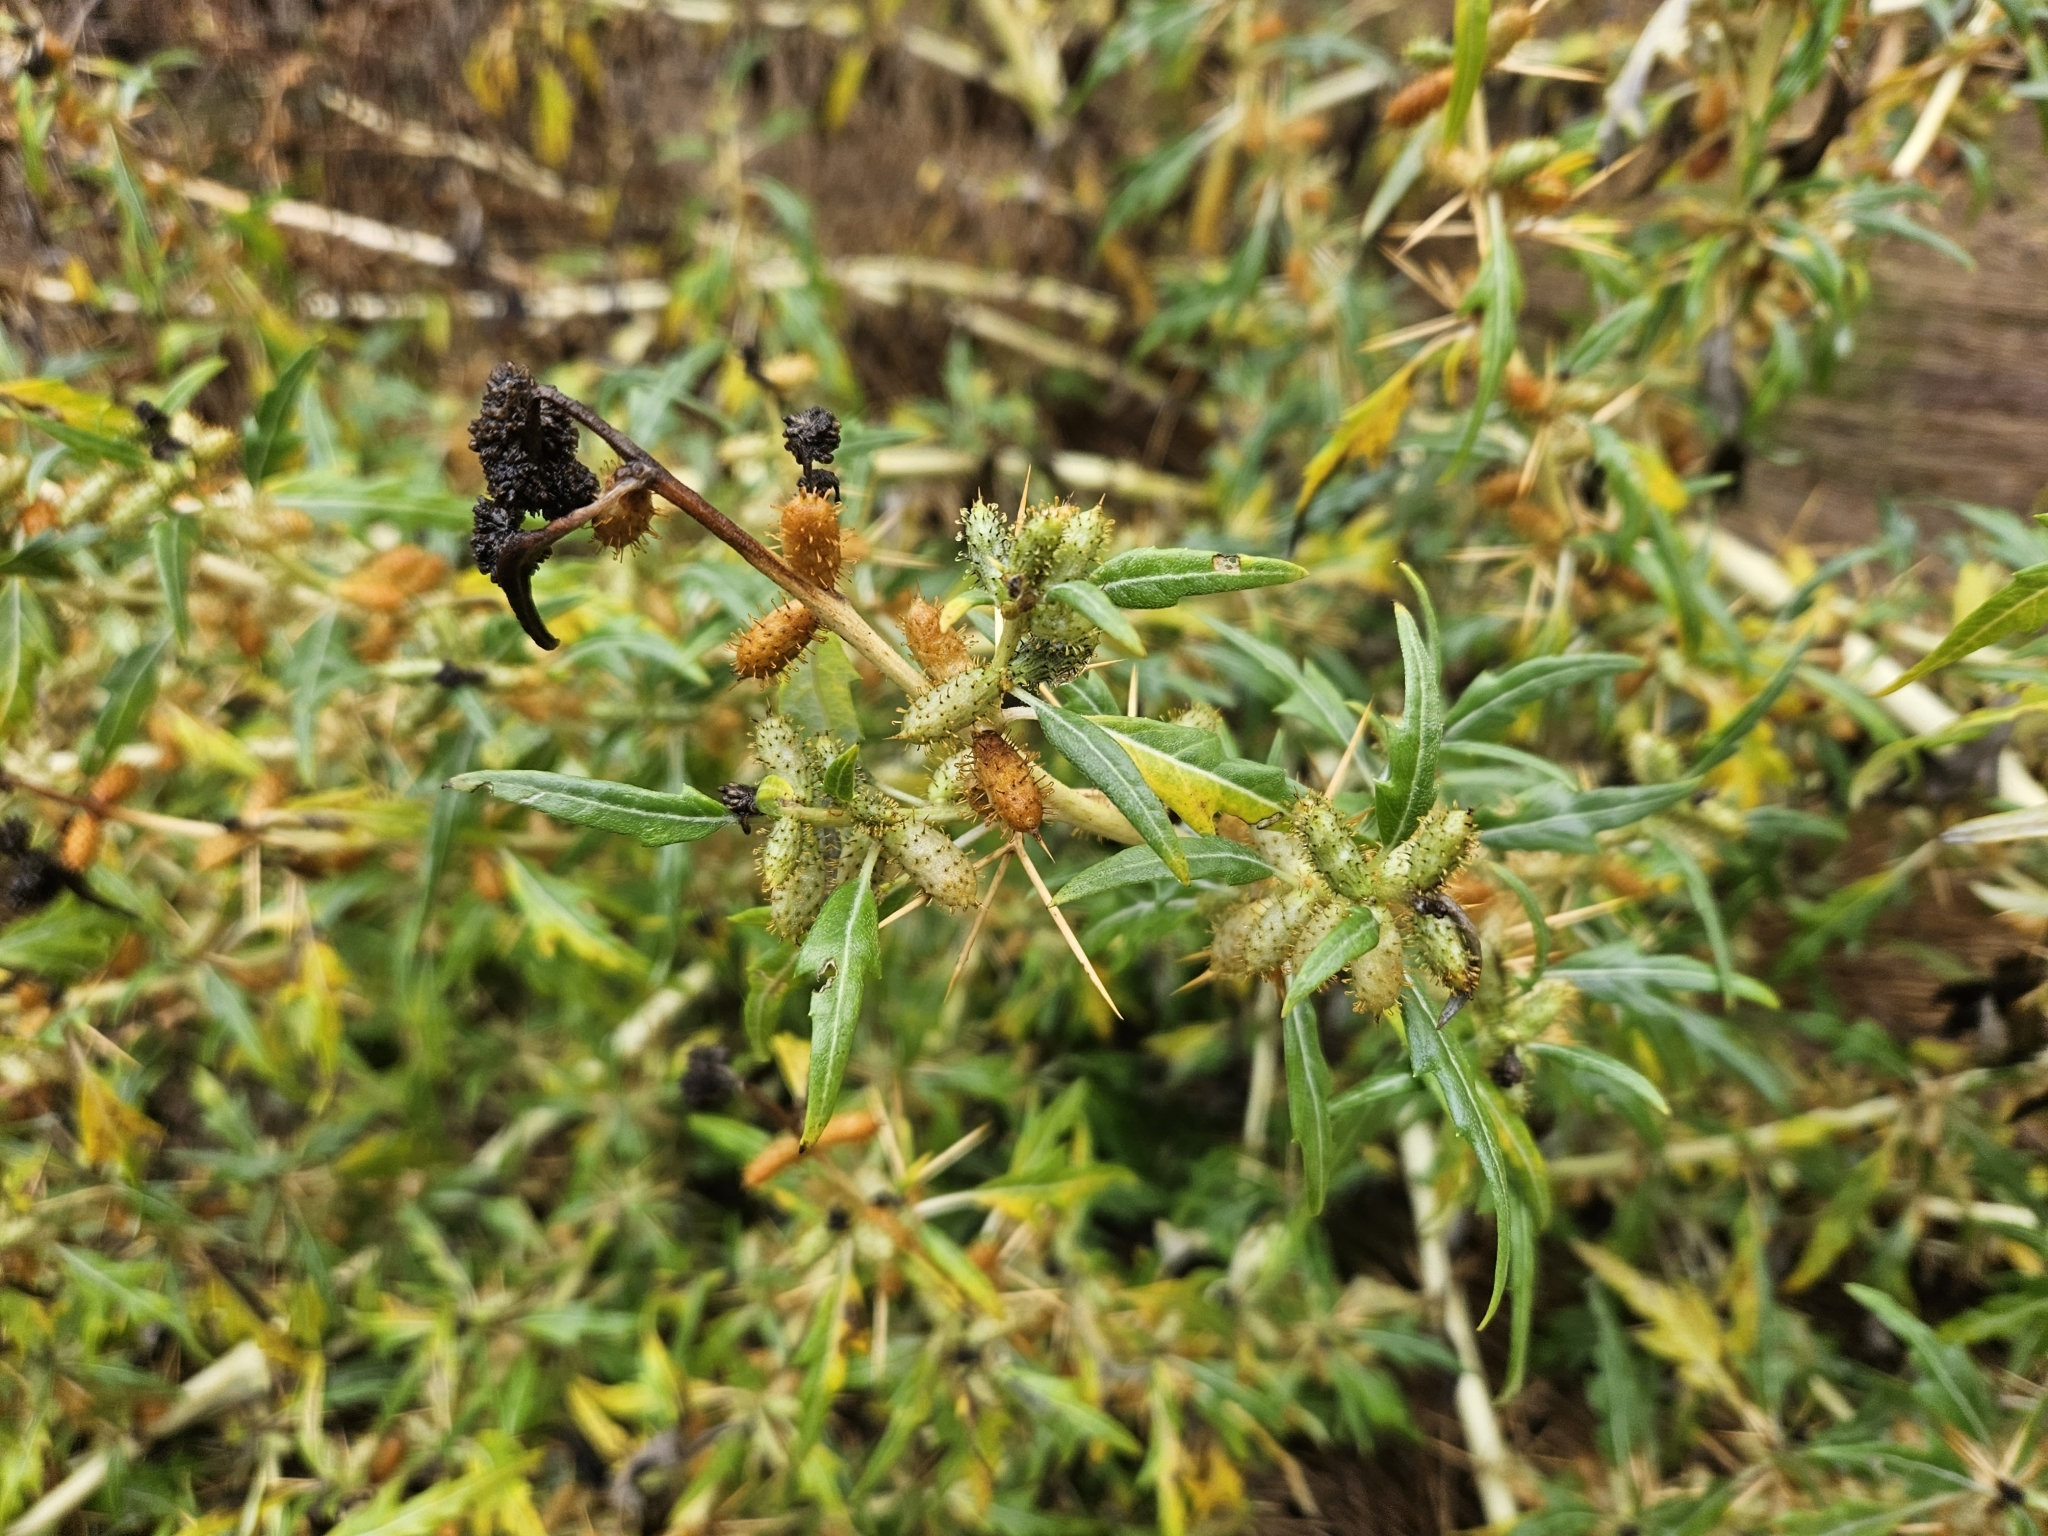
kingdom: Plantae
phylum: Tracheophyta
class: Magnoliopsida
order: Asterales
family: Asteraceae
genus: Xanthium
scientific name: Xanthium spinosum
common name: Spiny cocklebur
